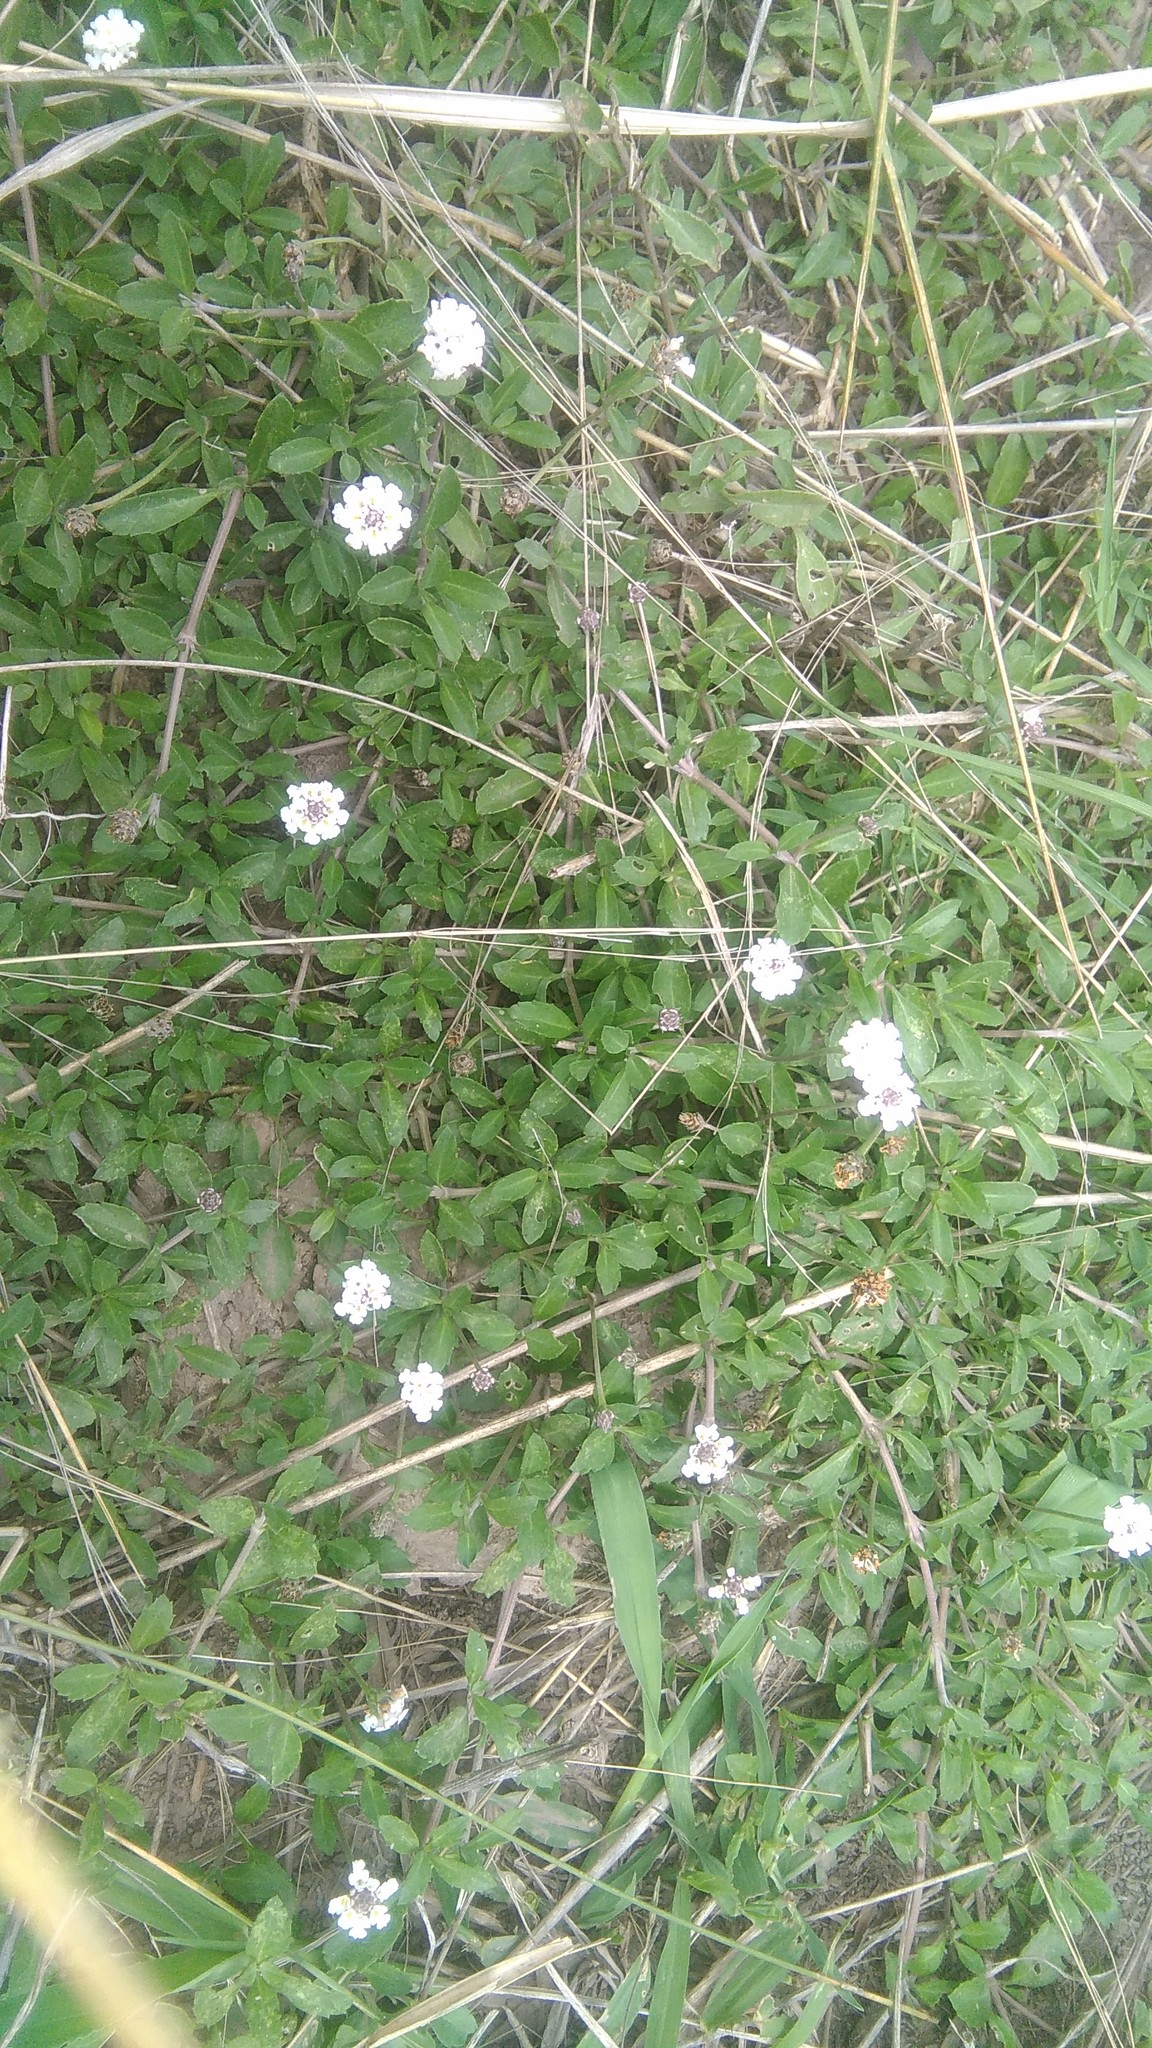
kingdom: Plantae
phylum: Tracheophyta
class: Magnoliopsida
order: Lamiales
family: Verbenaceae
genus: Phyla
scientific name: Phyla nodiflora
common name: Frogfruit
